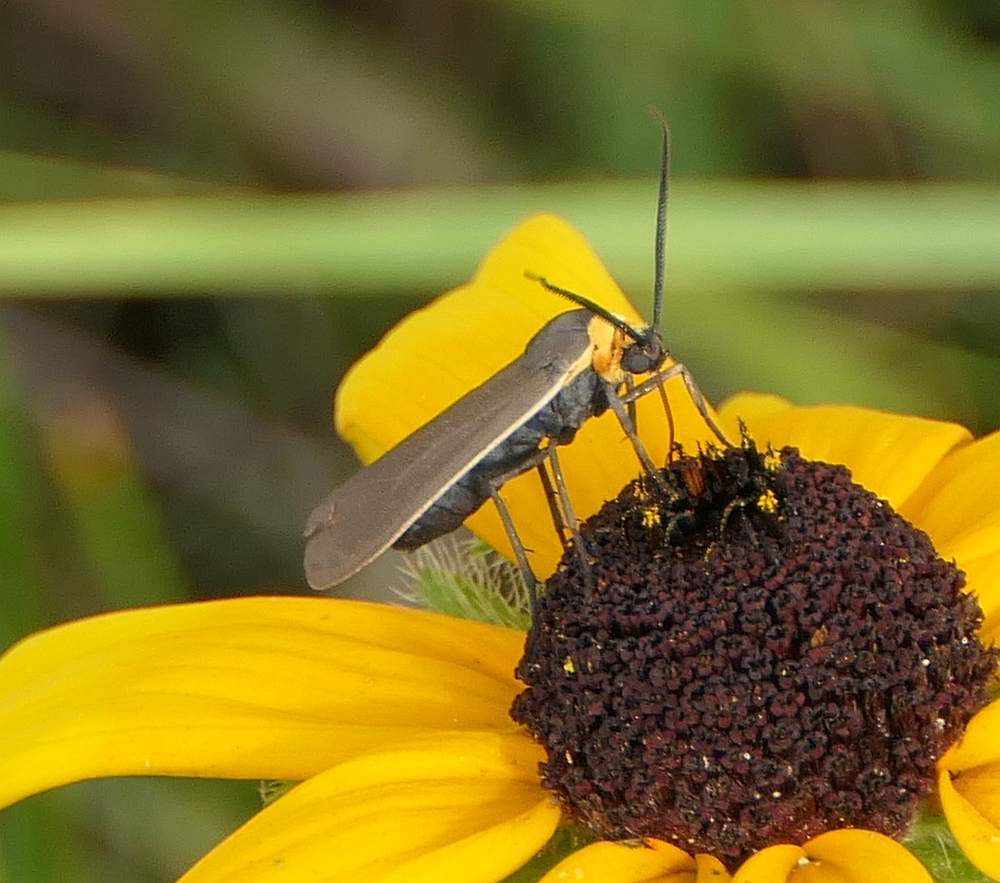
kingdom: Animalia
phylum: Arthropoda
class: Insecta
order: Lepidoptera
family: Erebidae
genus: Cisseps
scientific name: Cisseps fulvicollis
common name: Yellow-collared scape moth
